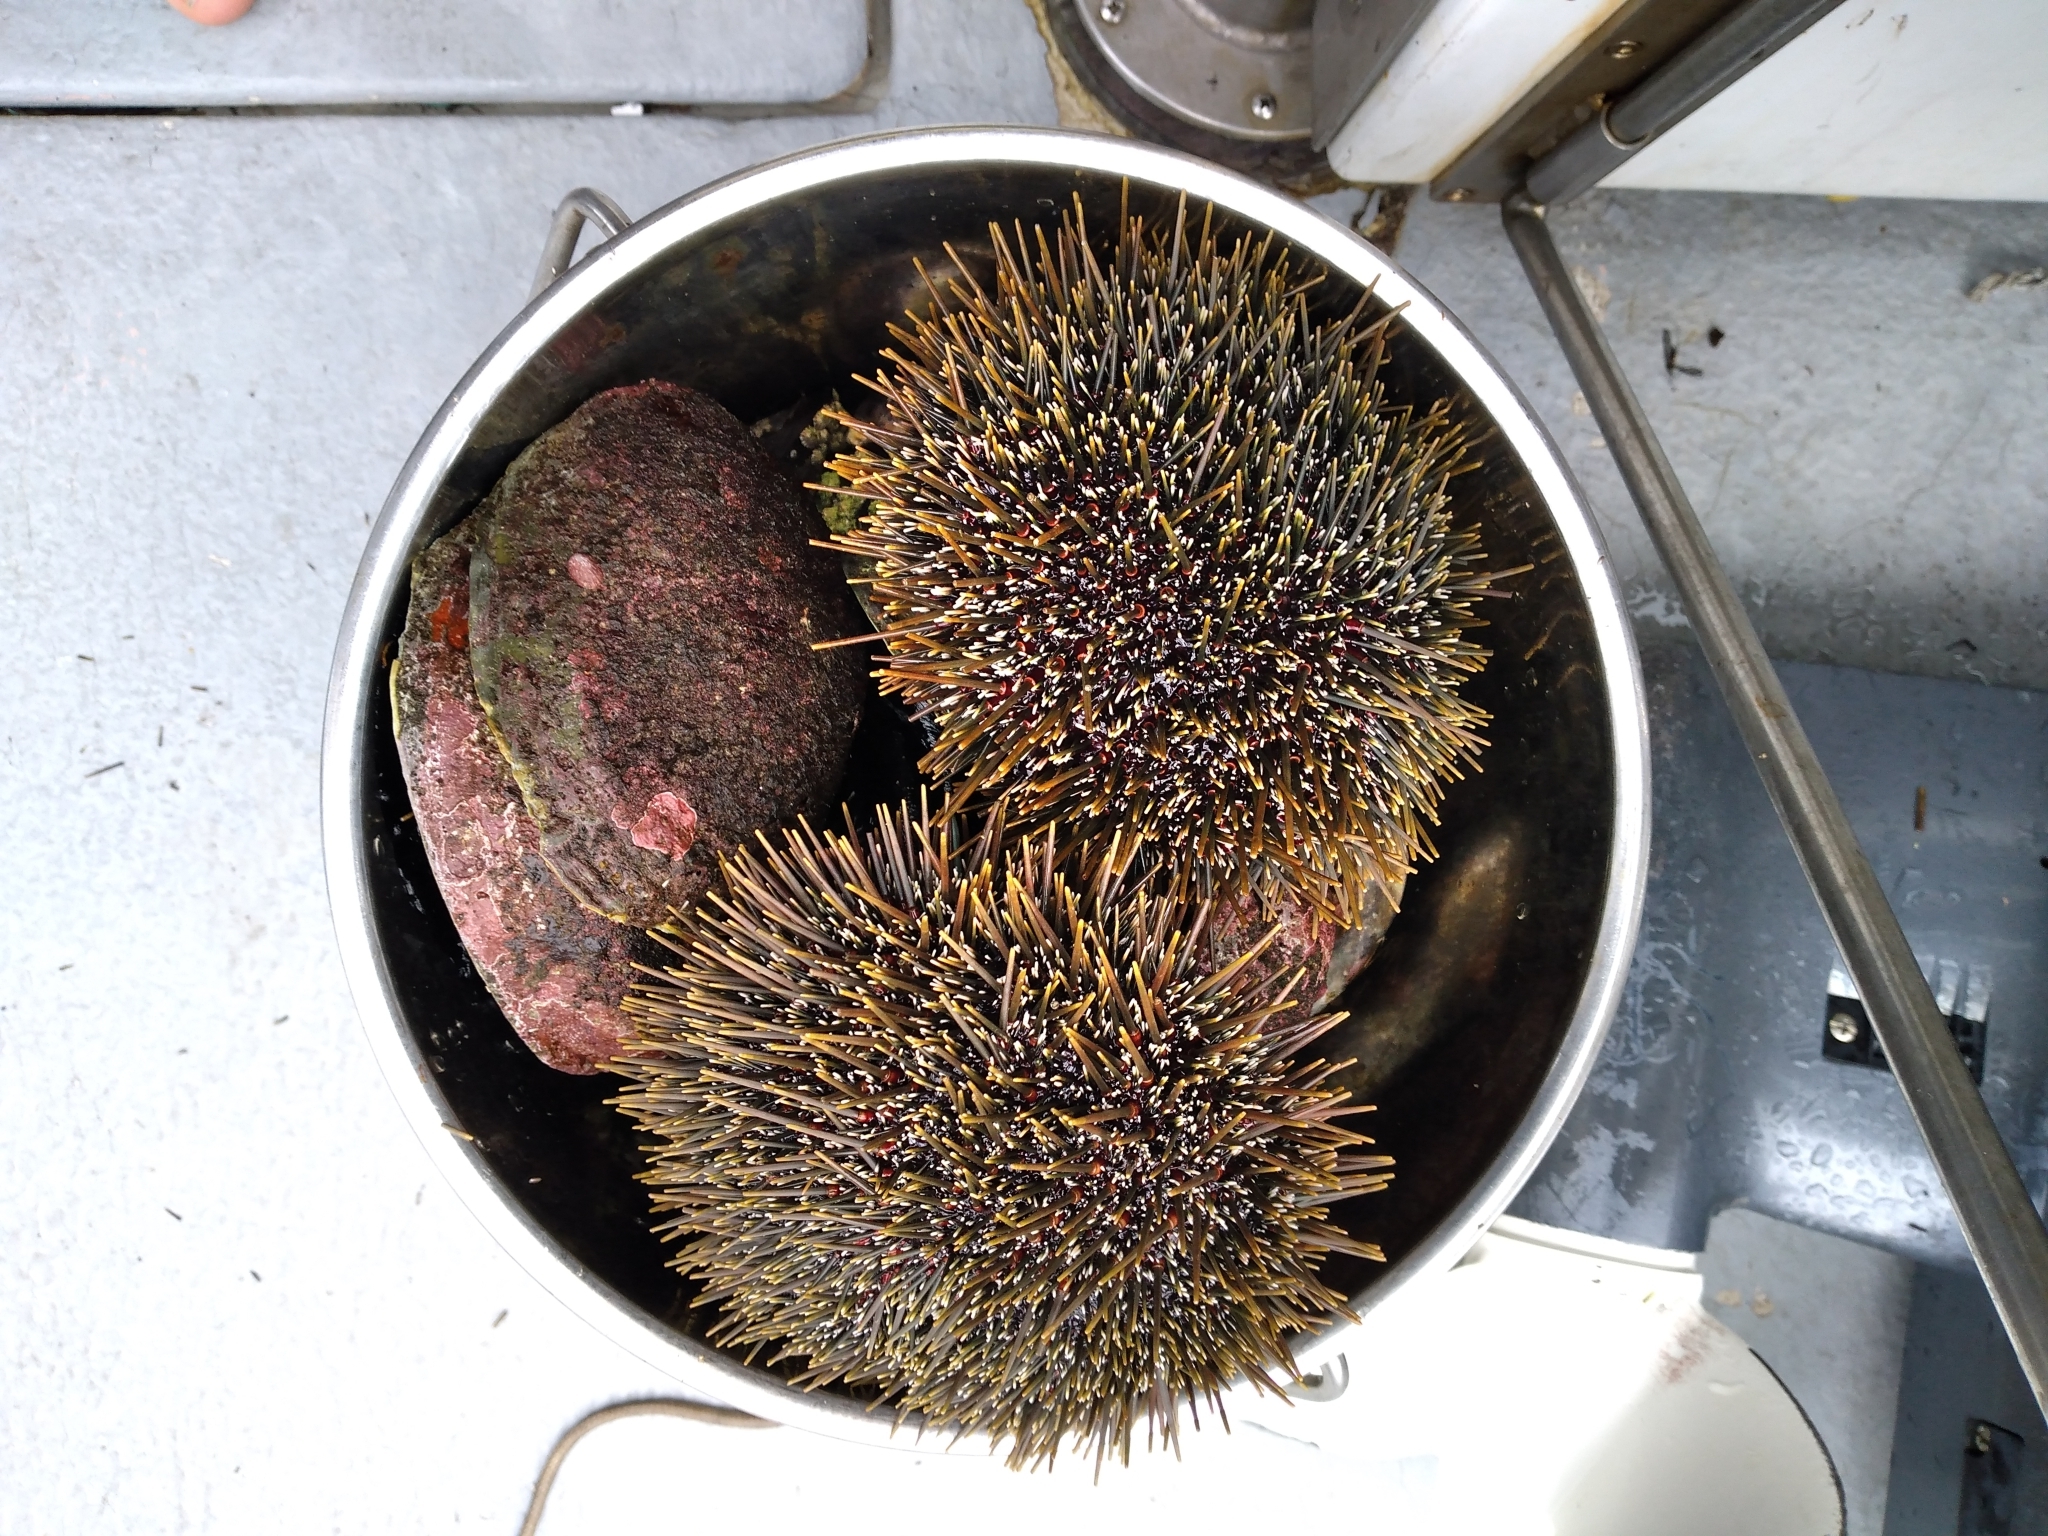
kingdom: Animalia
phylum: Echinodermata
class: Echinoidea
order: Camarodonta
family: Echinometridae
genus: Evechinus
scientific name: Evechinus chloroticus
